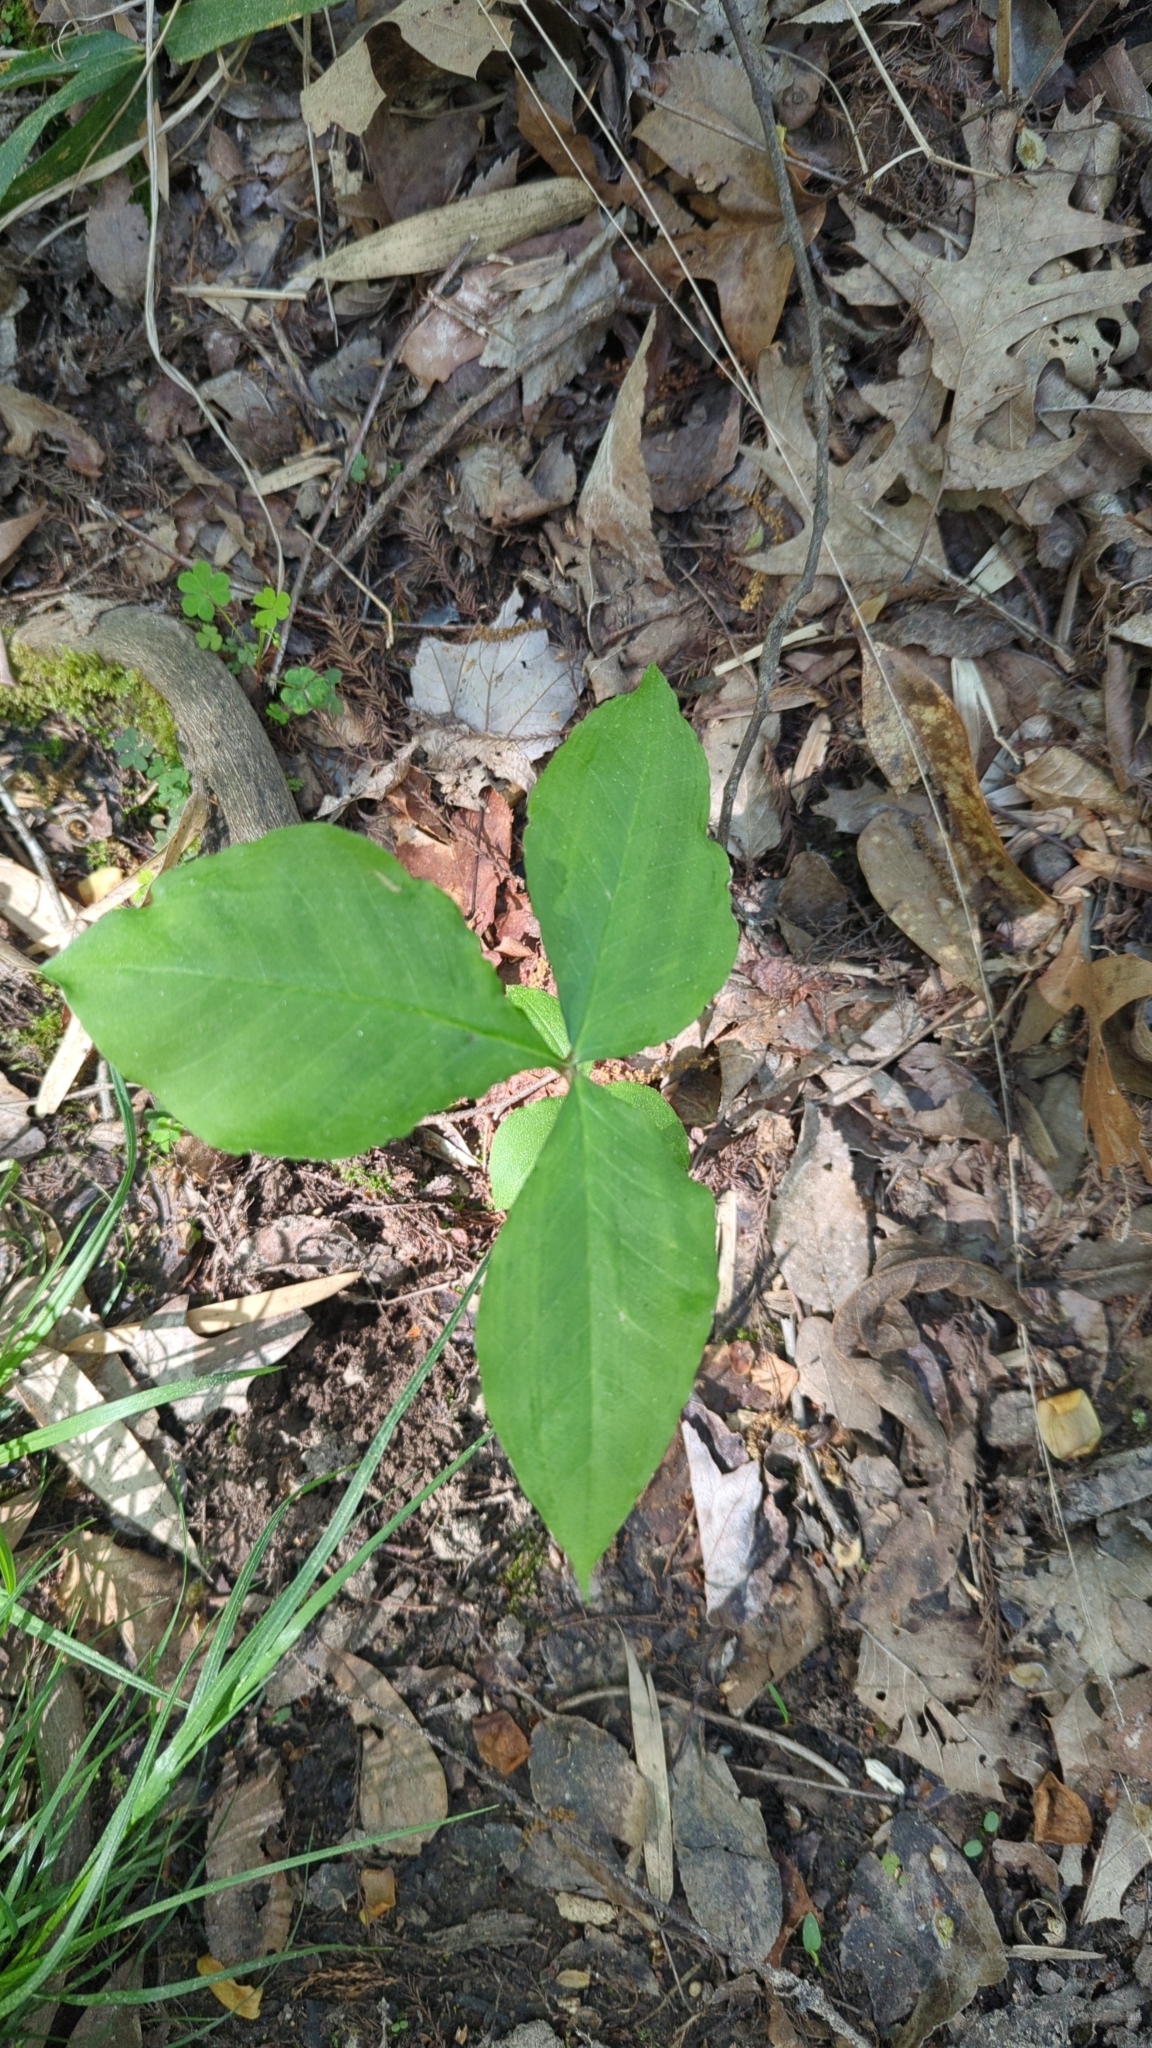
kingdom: Plantae
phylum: Tracheophyta
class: Liliopsida
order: Alismatales
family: Araceae
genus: Arisaema
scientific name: Arisaema triphyllum
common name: Jack-in-the-pulpit
